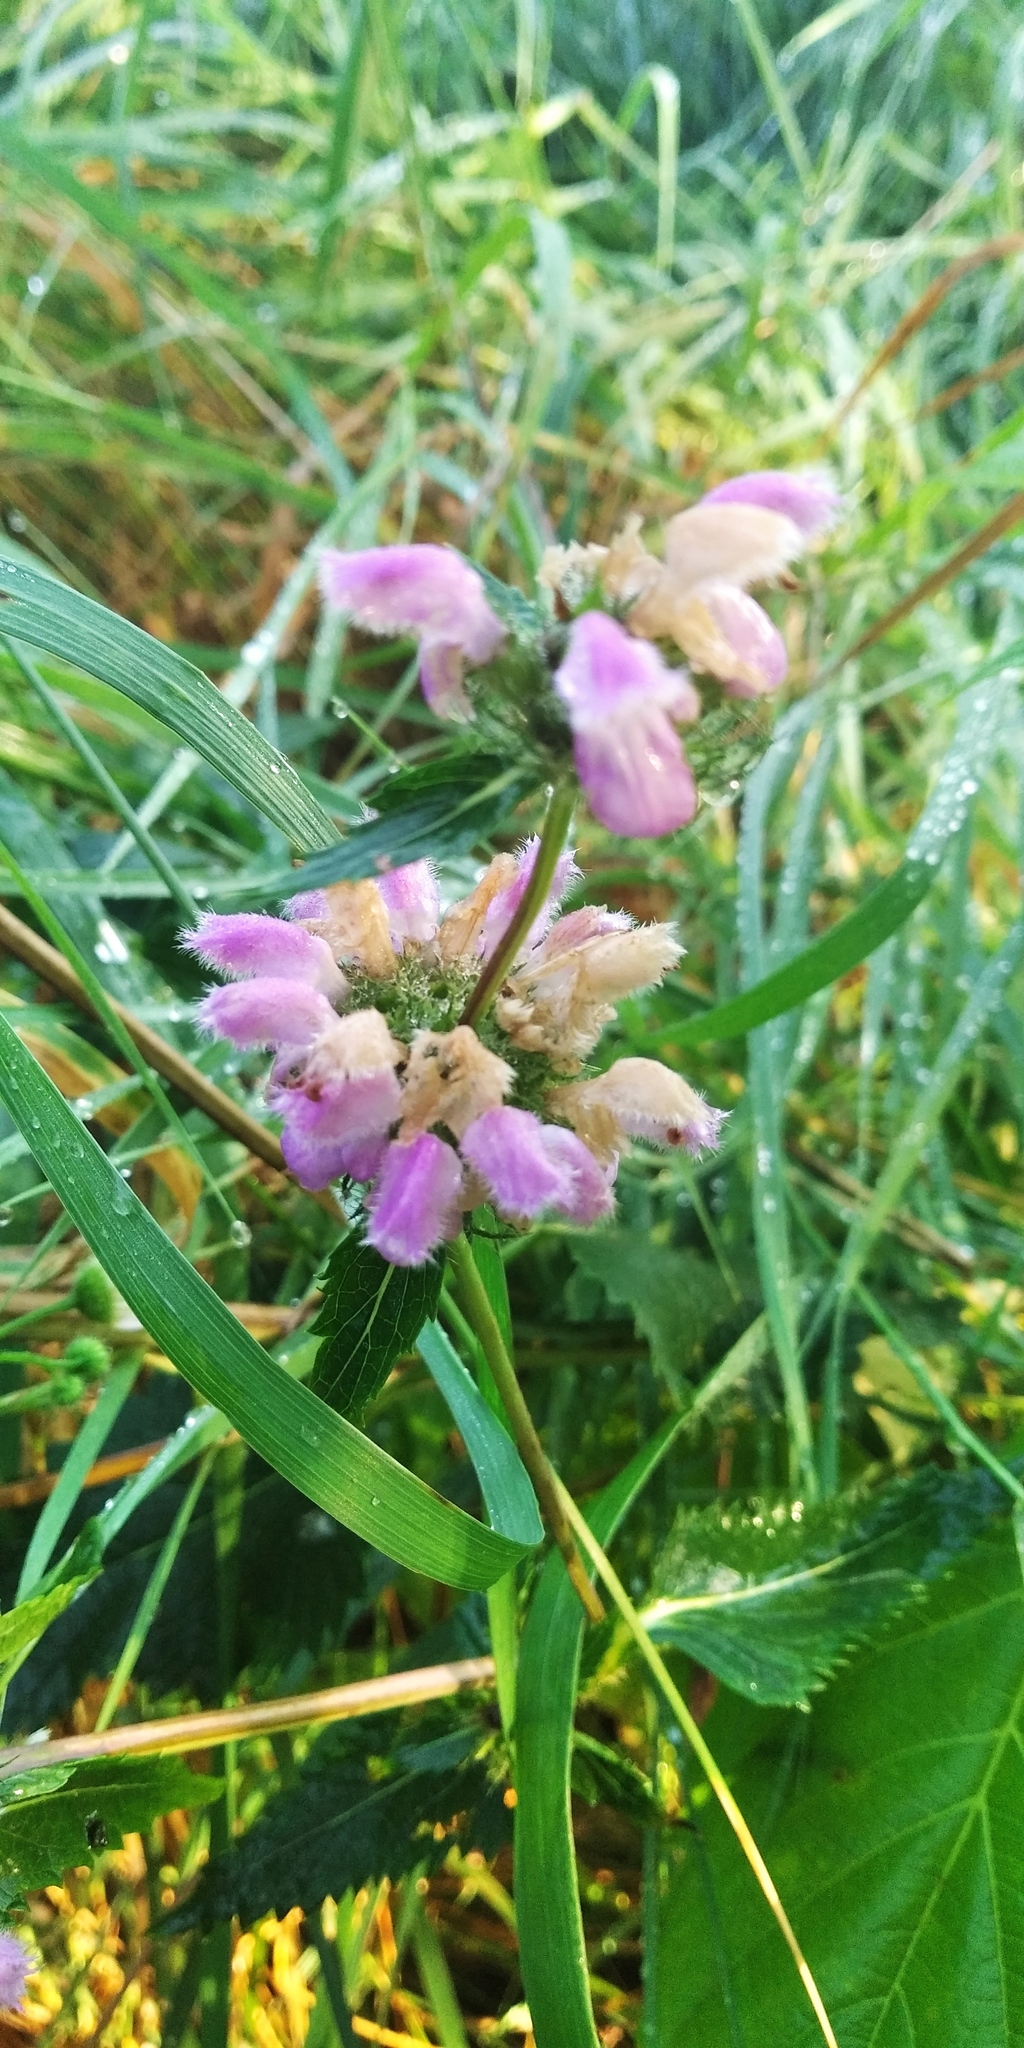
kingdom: Plantae
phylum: Tracheophyta
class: Magnoliopsida
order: Lamiales
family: Lamiaceae
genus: Phlomoides
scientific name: Phlomoides tuberosa
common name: Tuberous jerusalem sage
